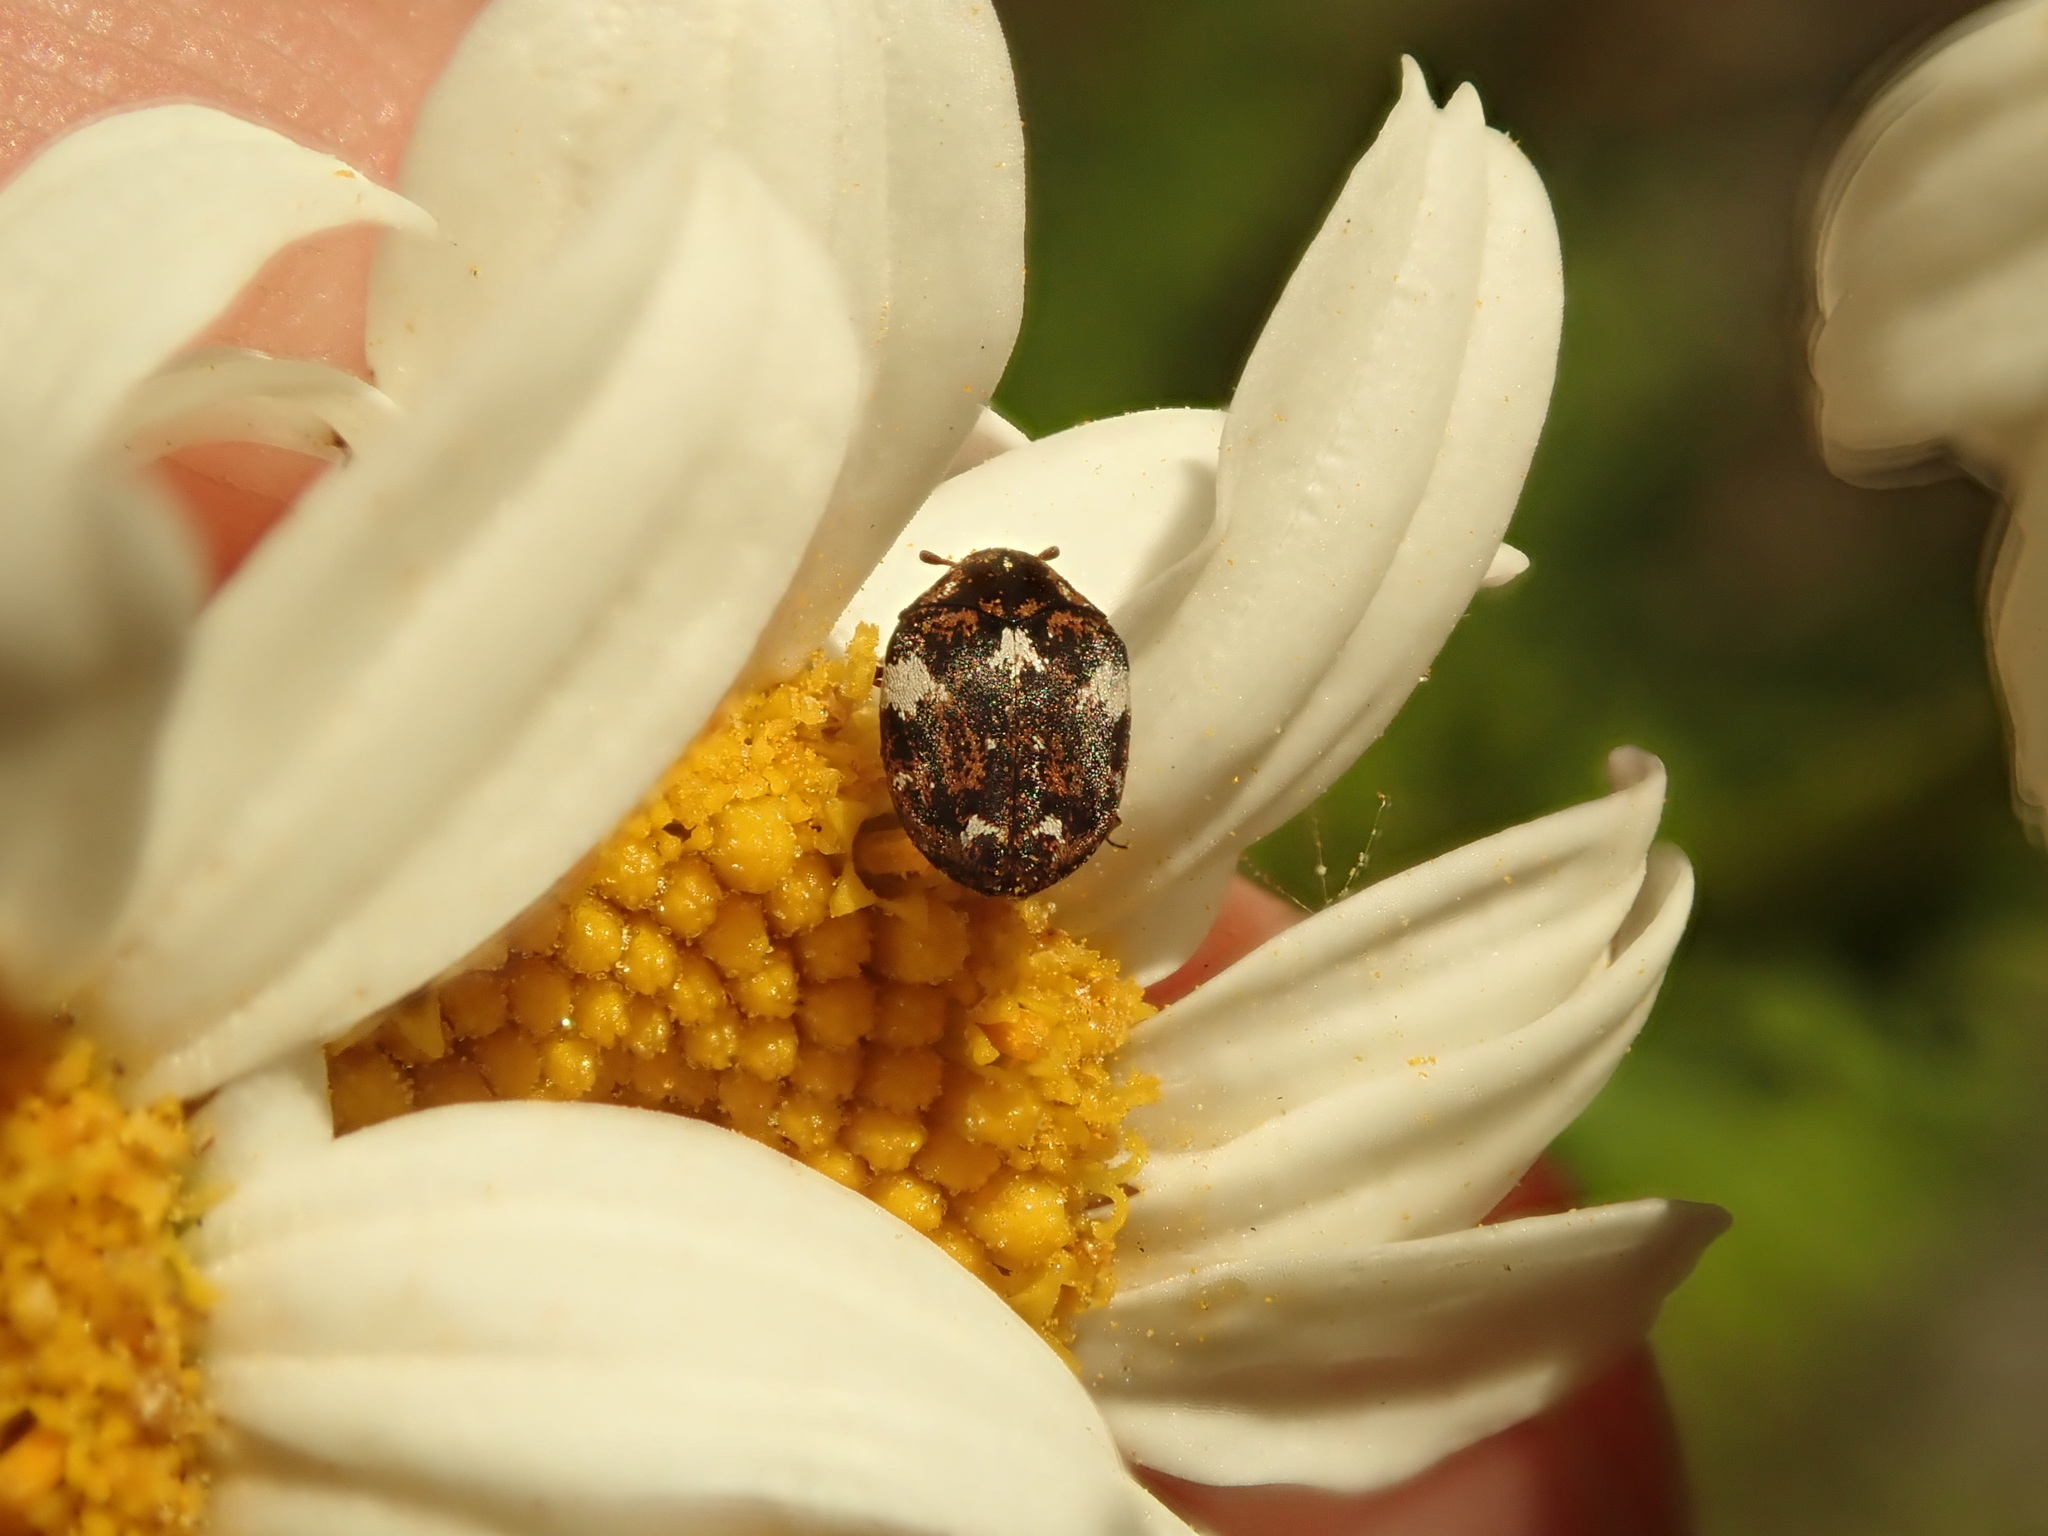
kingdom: Animalia
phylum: Arthropoda
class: Insecta
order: Coleoptera
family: Dermestidae
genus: Anthrenus
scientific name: Anthrenus angustefasciatus
